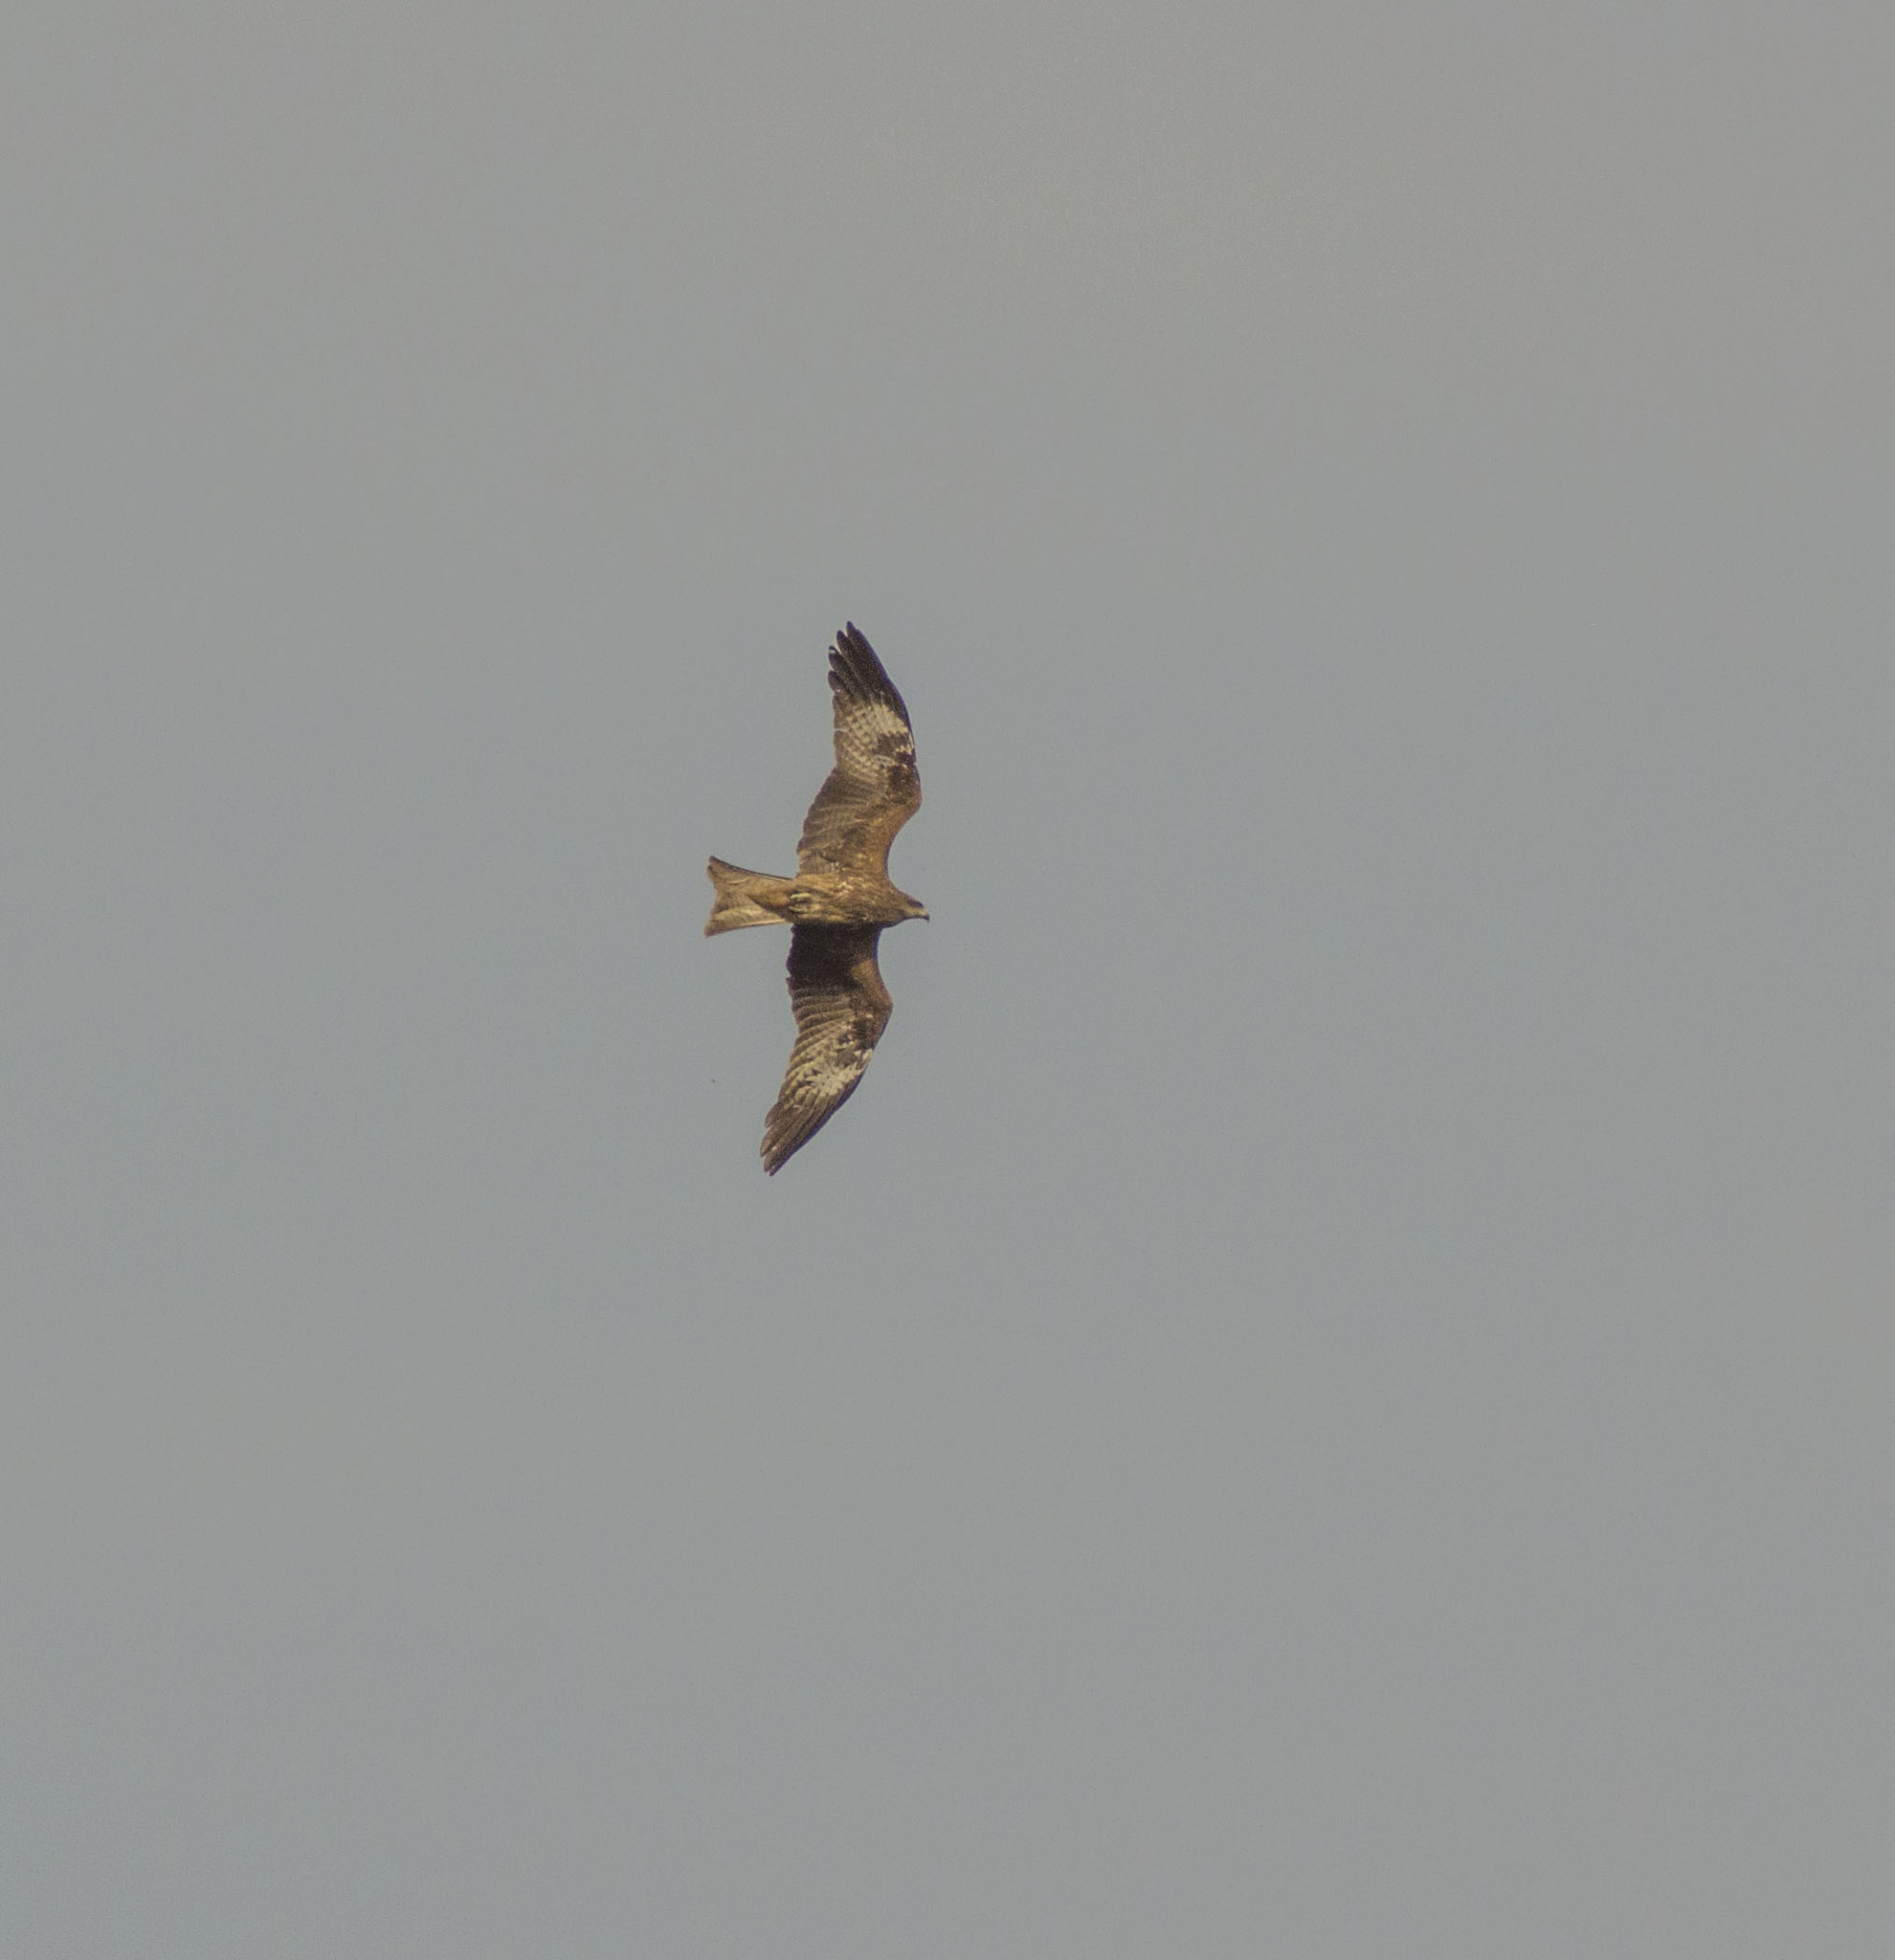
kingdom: Animalia
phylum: Chordata
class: Aves
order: Accipitriformes
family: Accipitridae
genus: Milvus
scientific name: Milvus migrans
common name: Black kite
